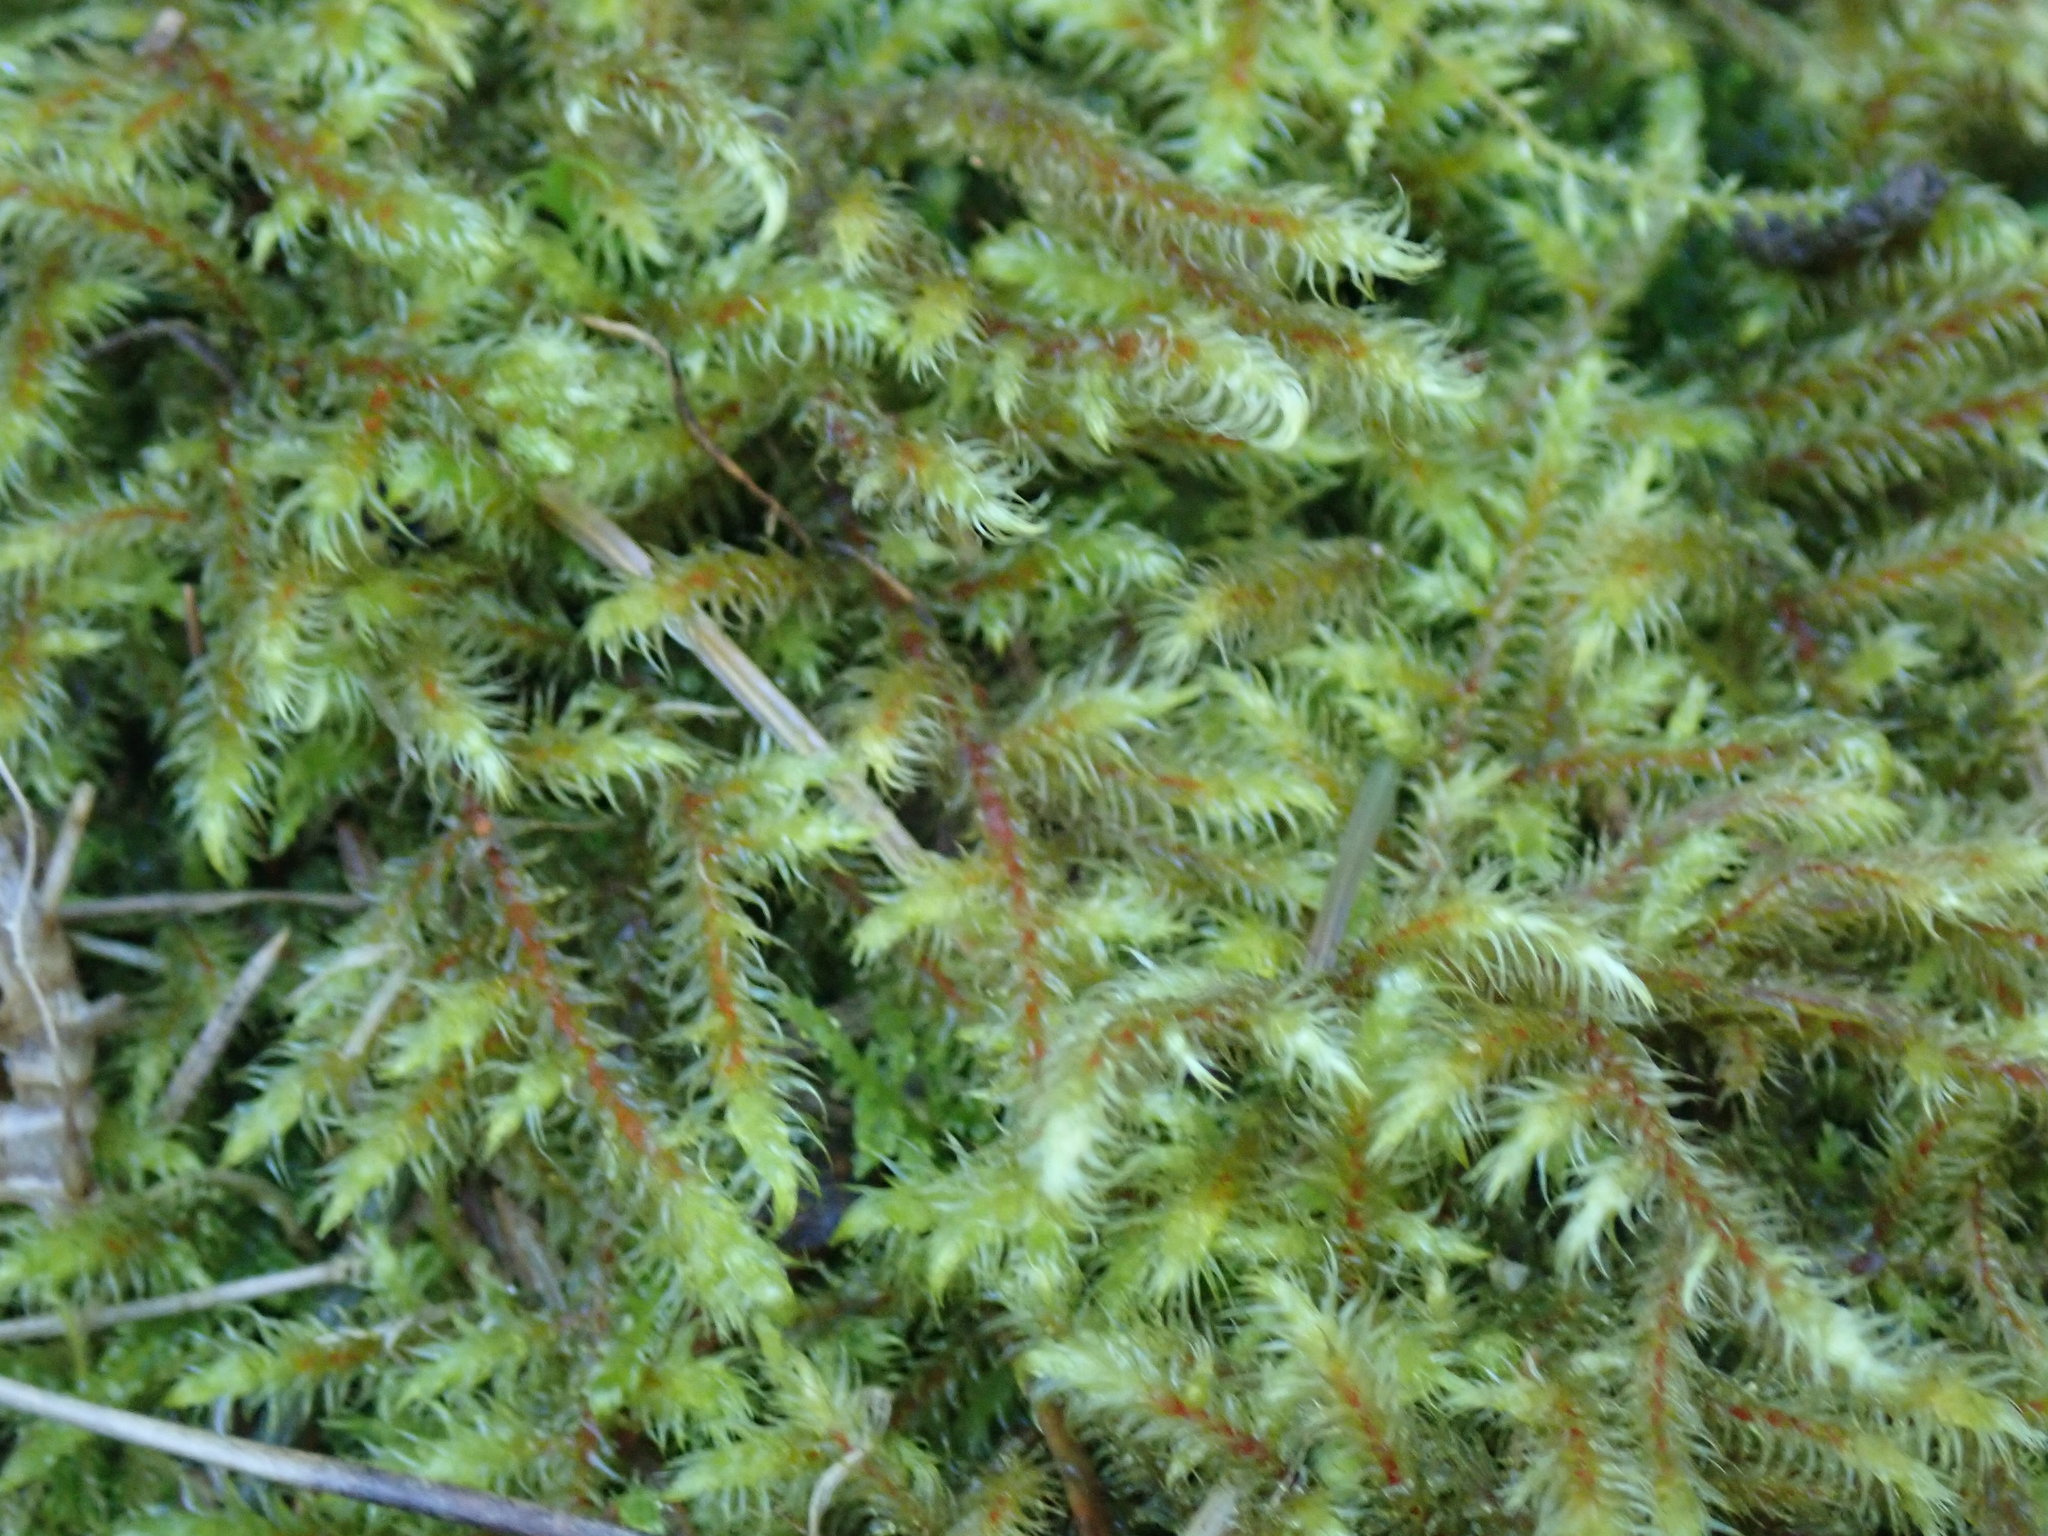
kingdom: Plantae
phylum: Bryophyta
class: Bryopsida
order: Hypnales
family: Hylocomiaceae
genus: Rhytidiadelphus
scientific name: Rhytidiadelphus loreus
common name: Lanky moss
